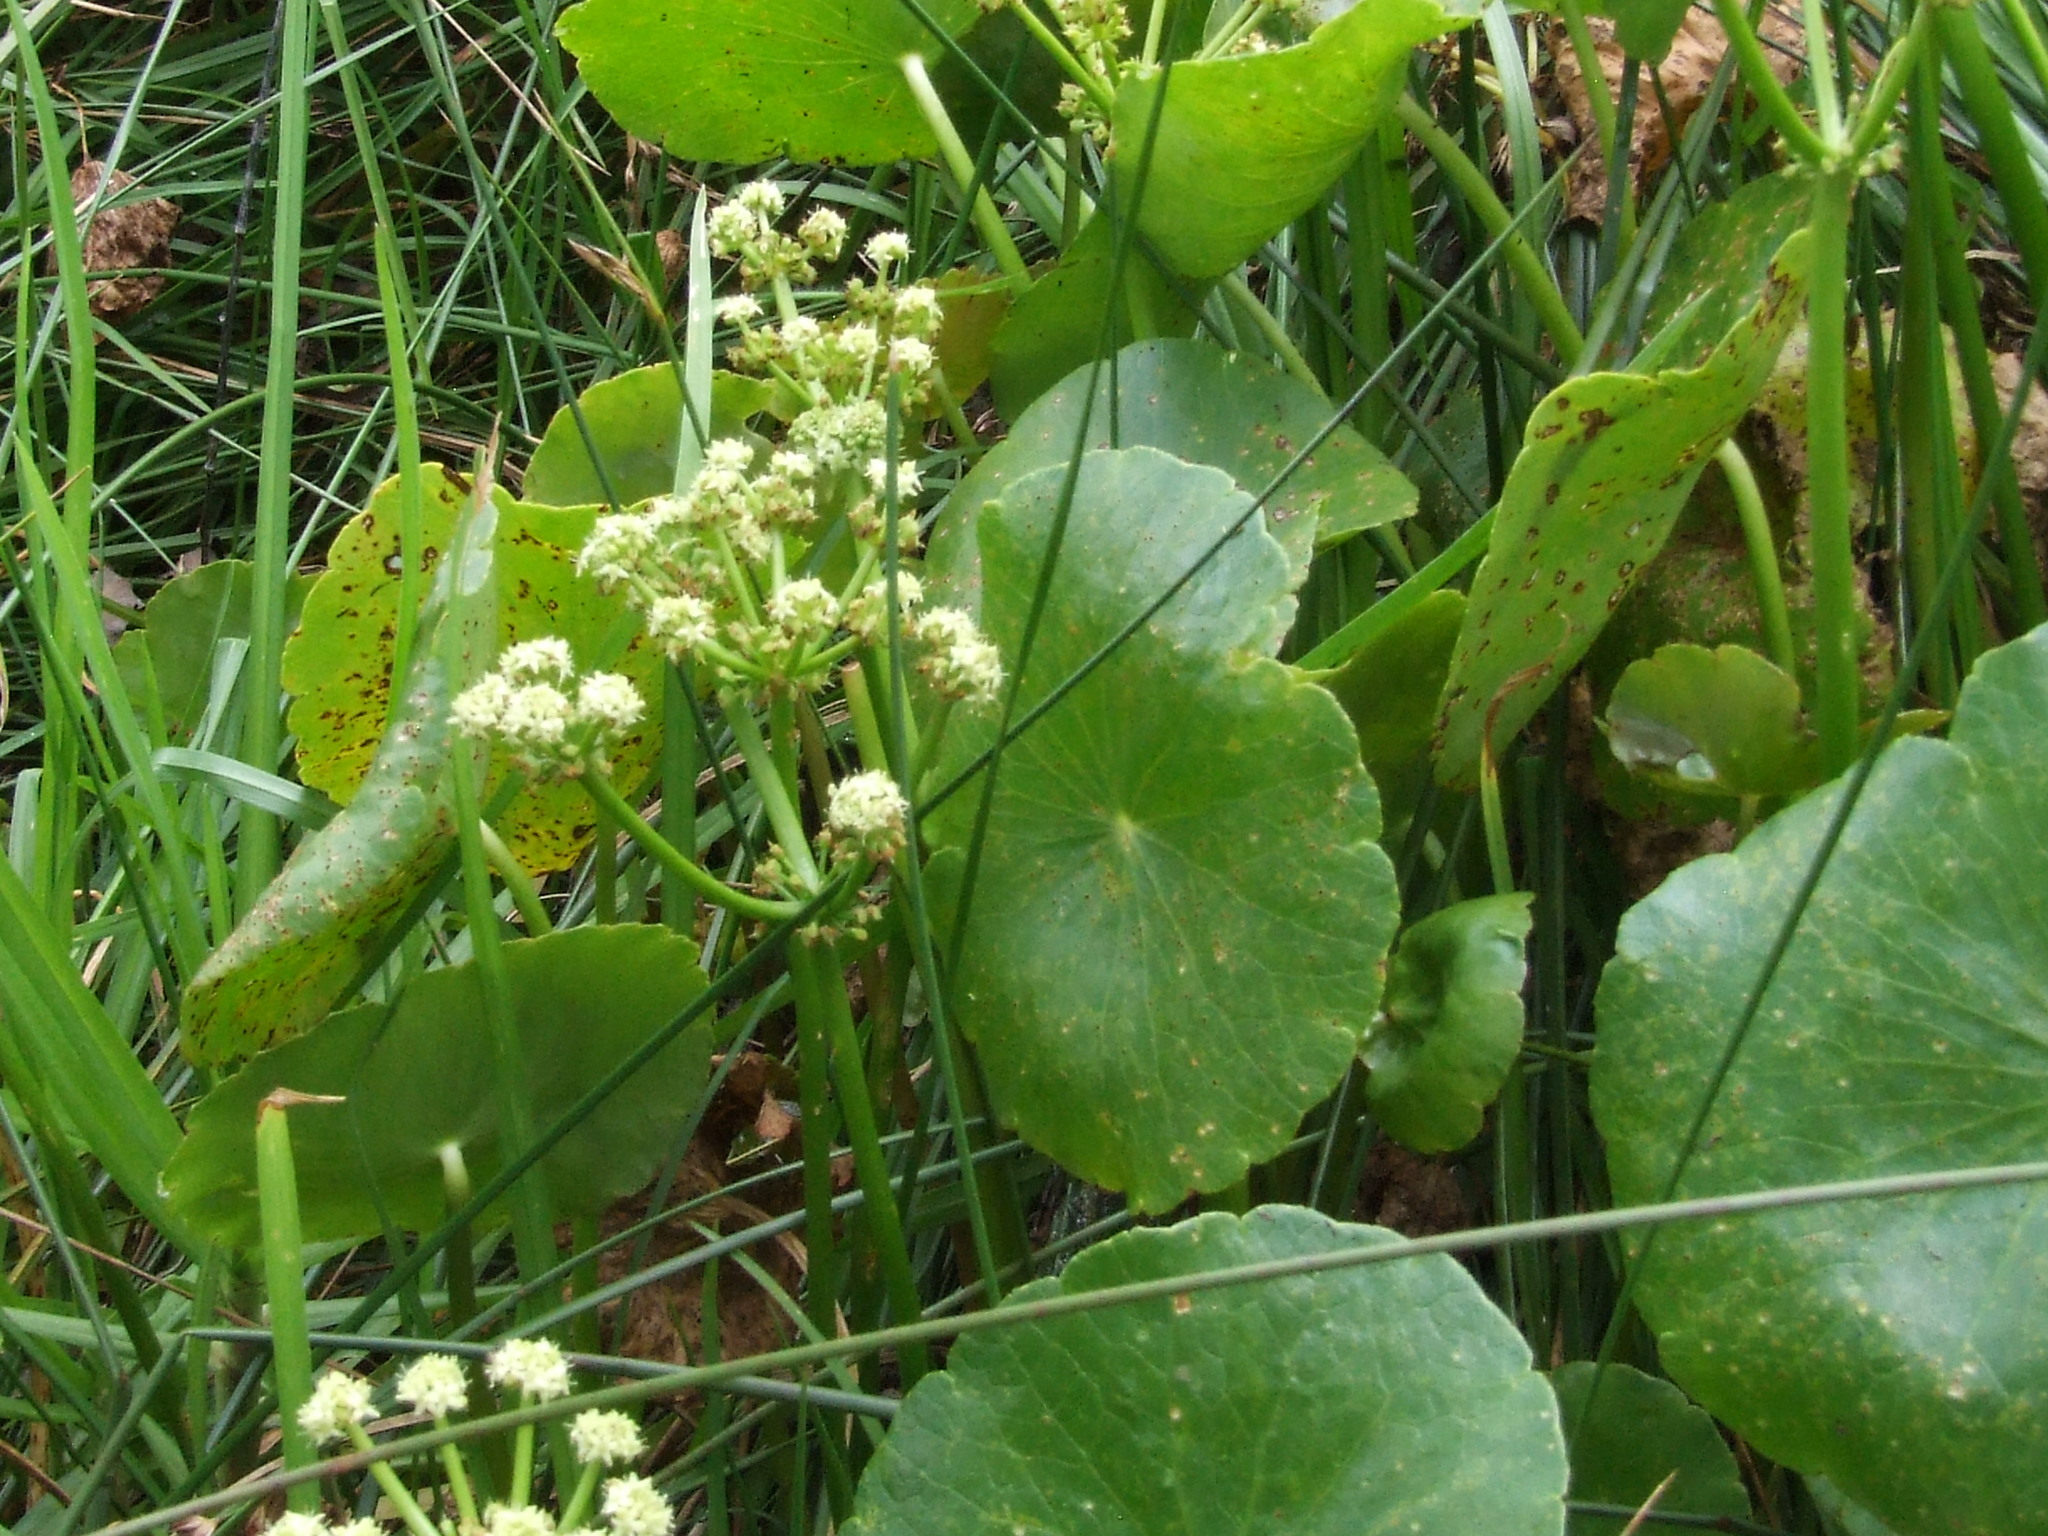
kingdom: Plantae
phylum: Tracheophyta
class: Magnoliopsida
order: Apiales
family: Araliaceae
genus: Hydrocotyle
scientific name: Hydrocotyle bonariensis
